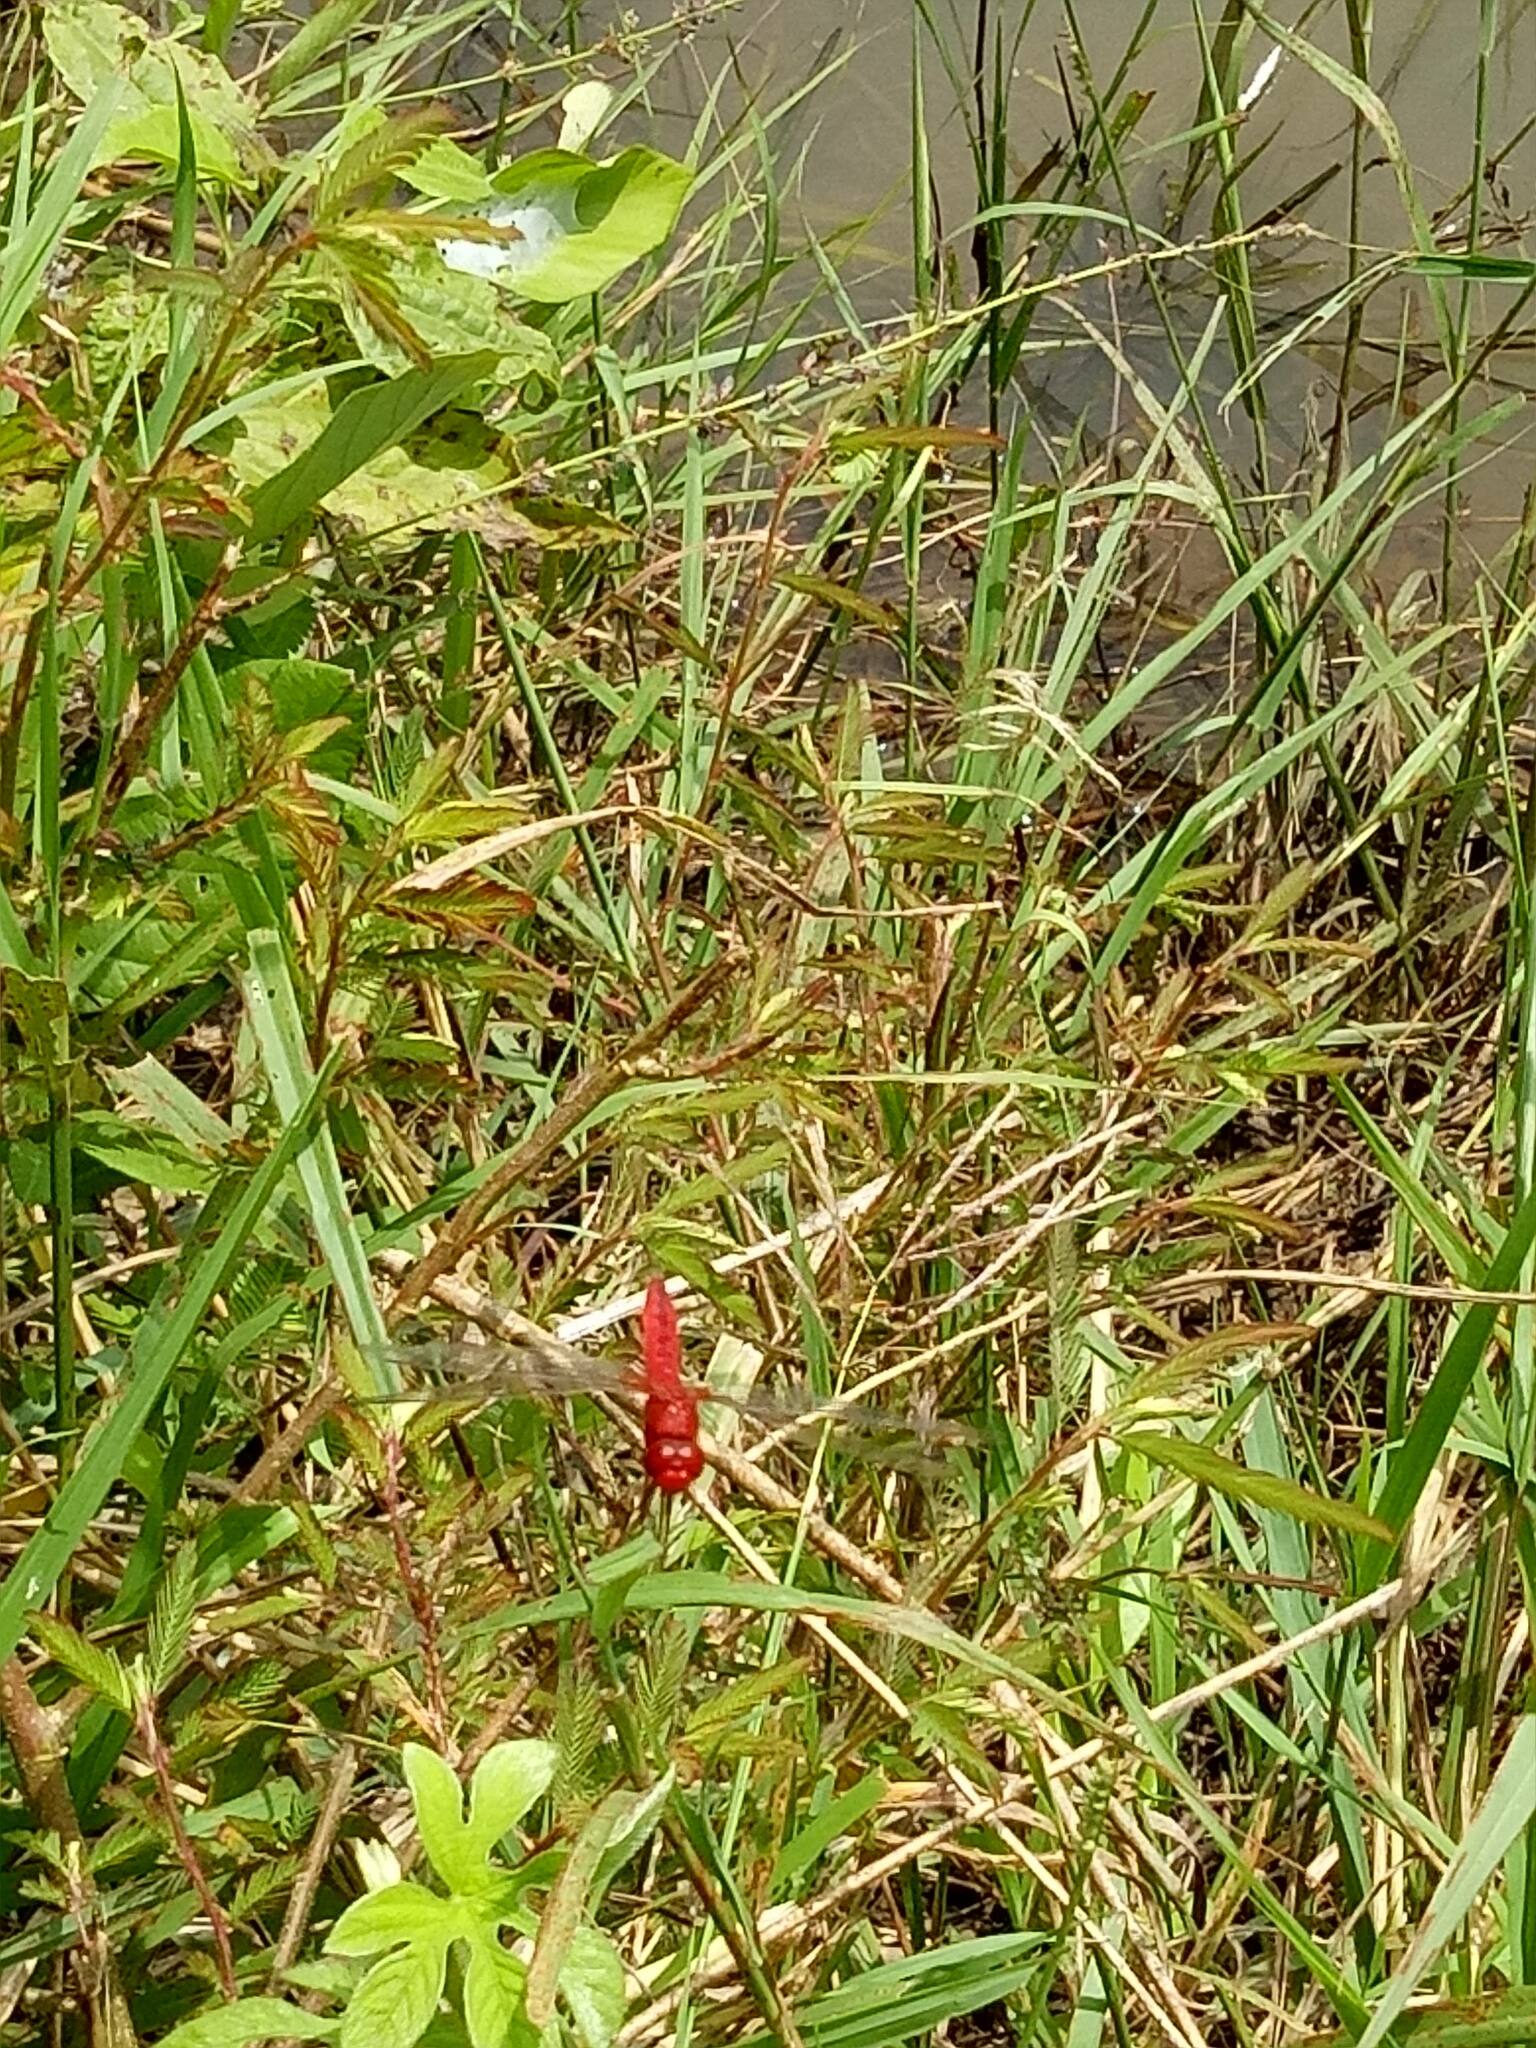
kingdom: Animalia
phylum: Arthropoda
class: Insecta
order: Odonata
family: Libellulidae
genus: Crocothemis
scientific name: Crocothemis servilia
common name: Scarlet skimmer
